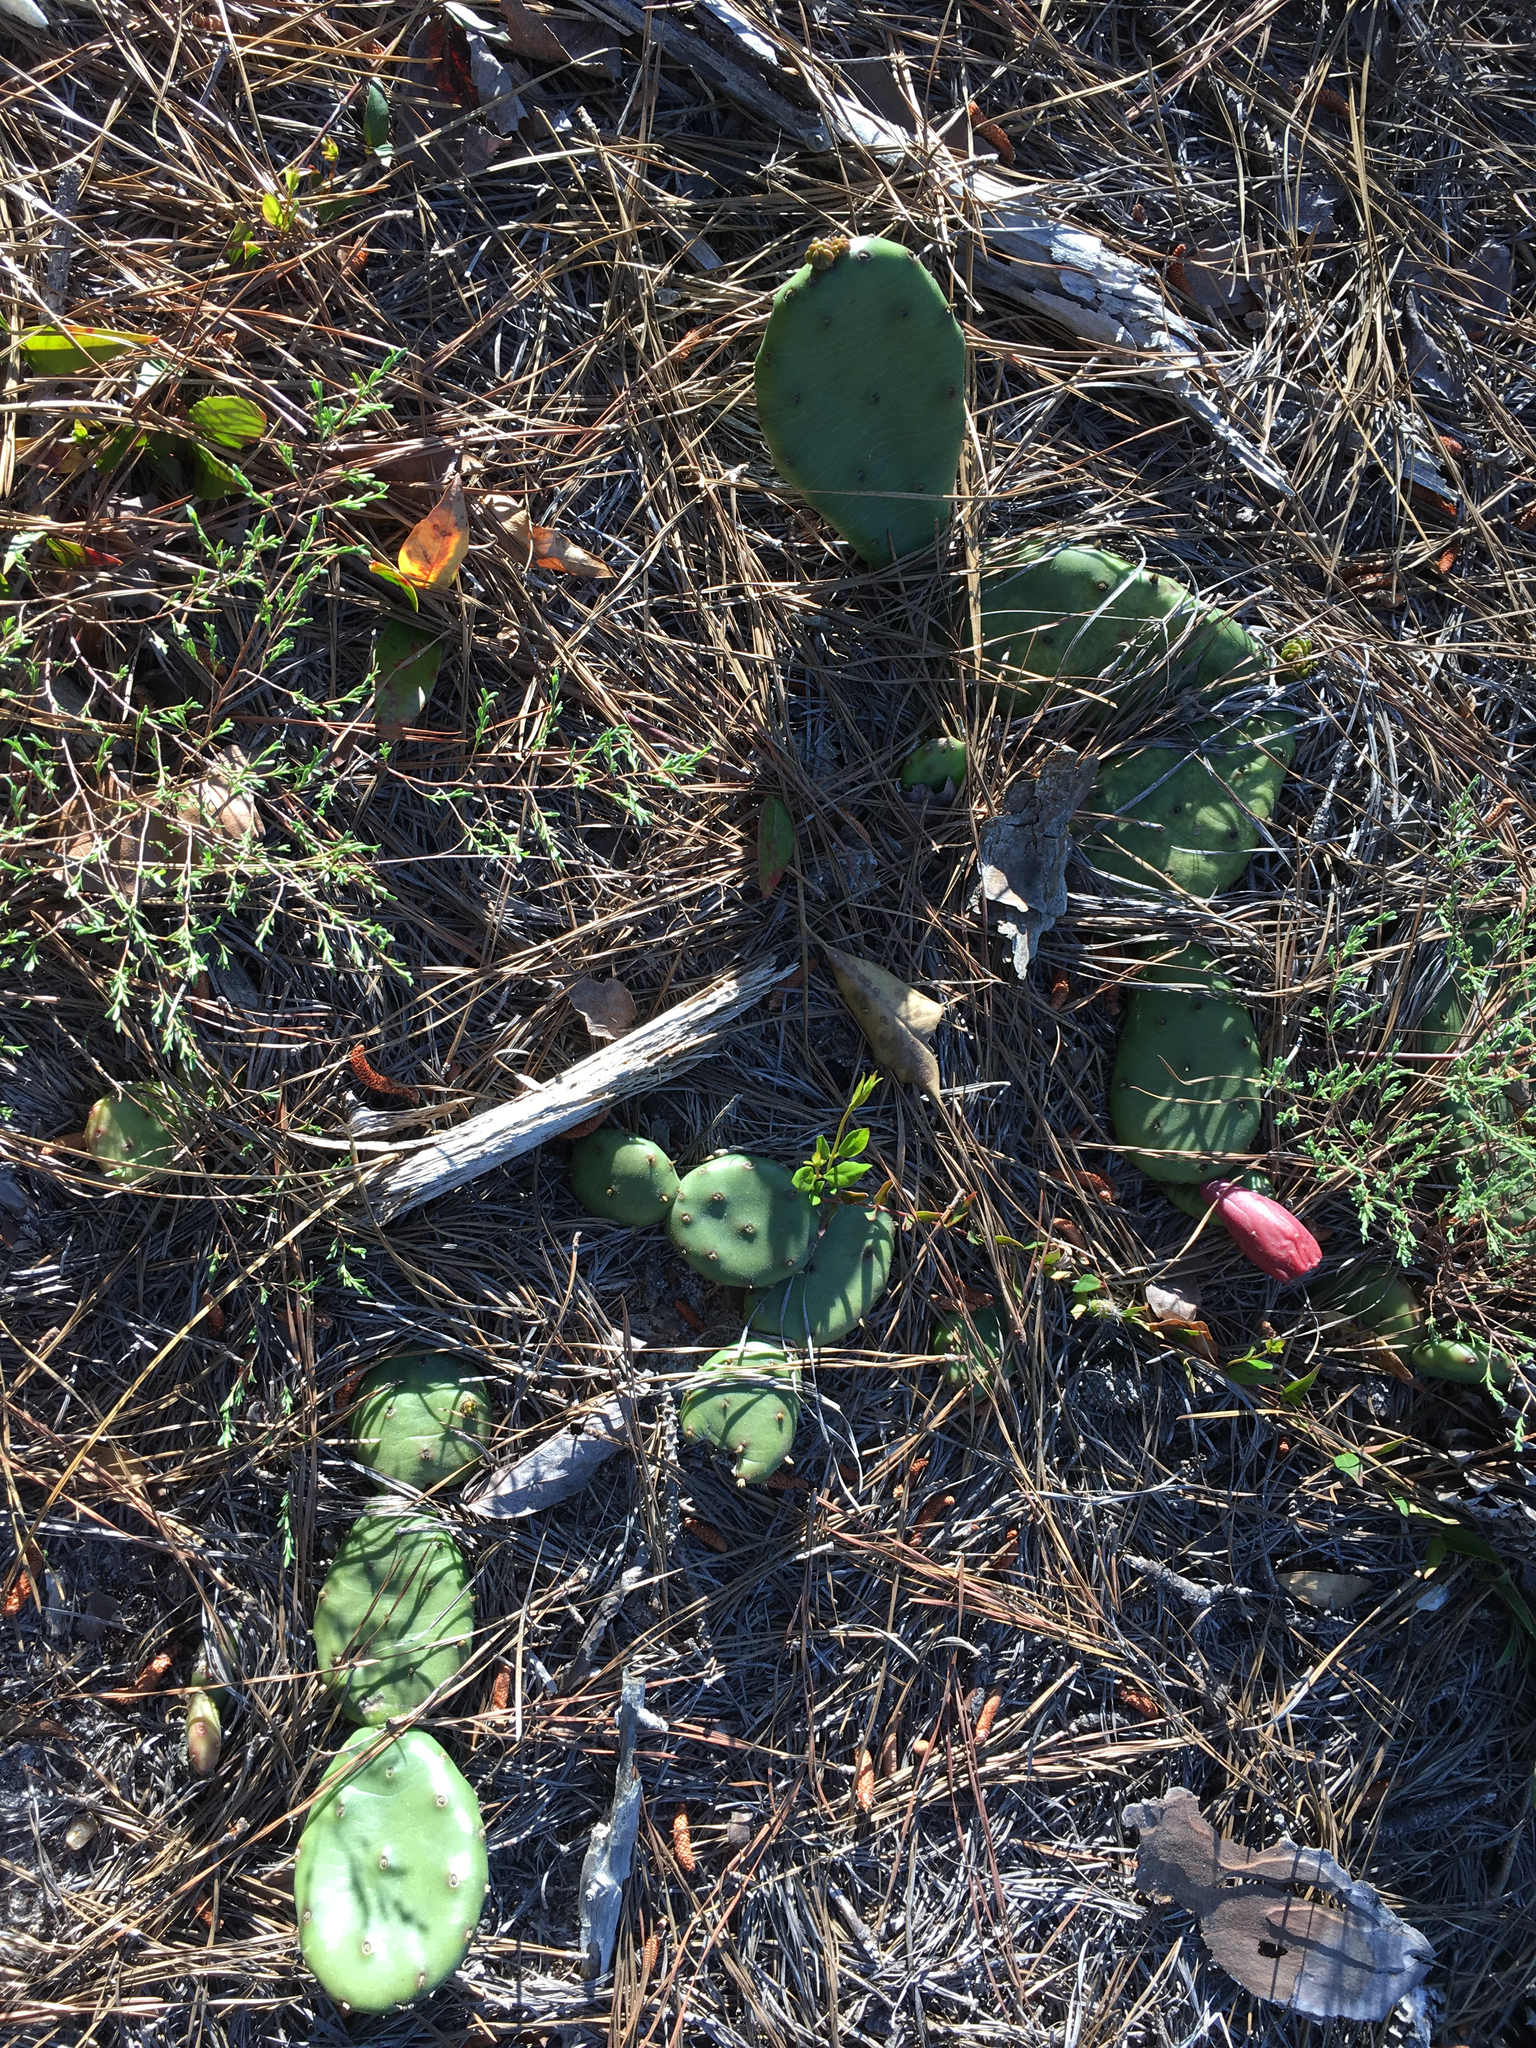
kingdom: Plantae
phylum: Tracheophyta
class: Magnoliopsida
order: Caryophyllales
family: Cactaceae
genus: Opuntia
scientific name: Opuntia humifusa
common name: Eastern prickly-pear
